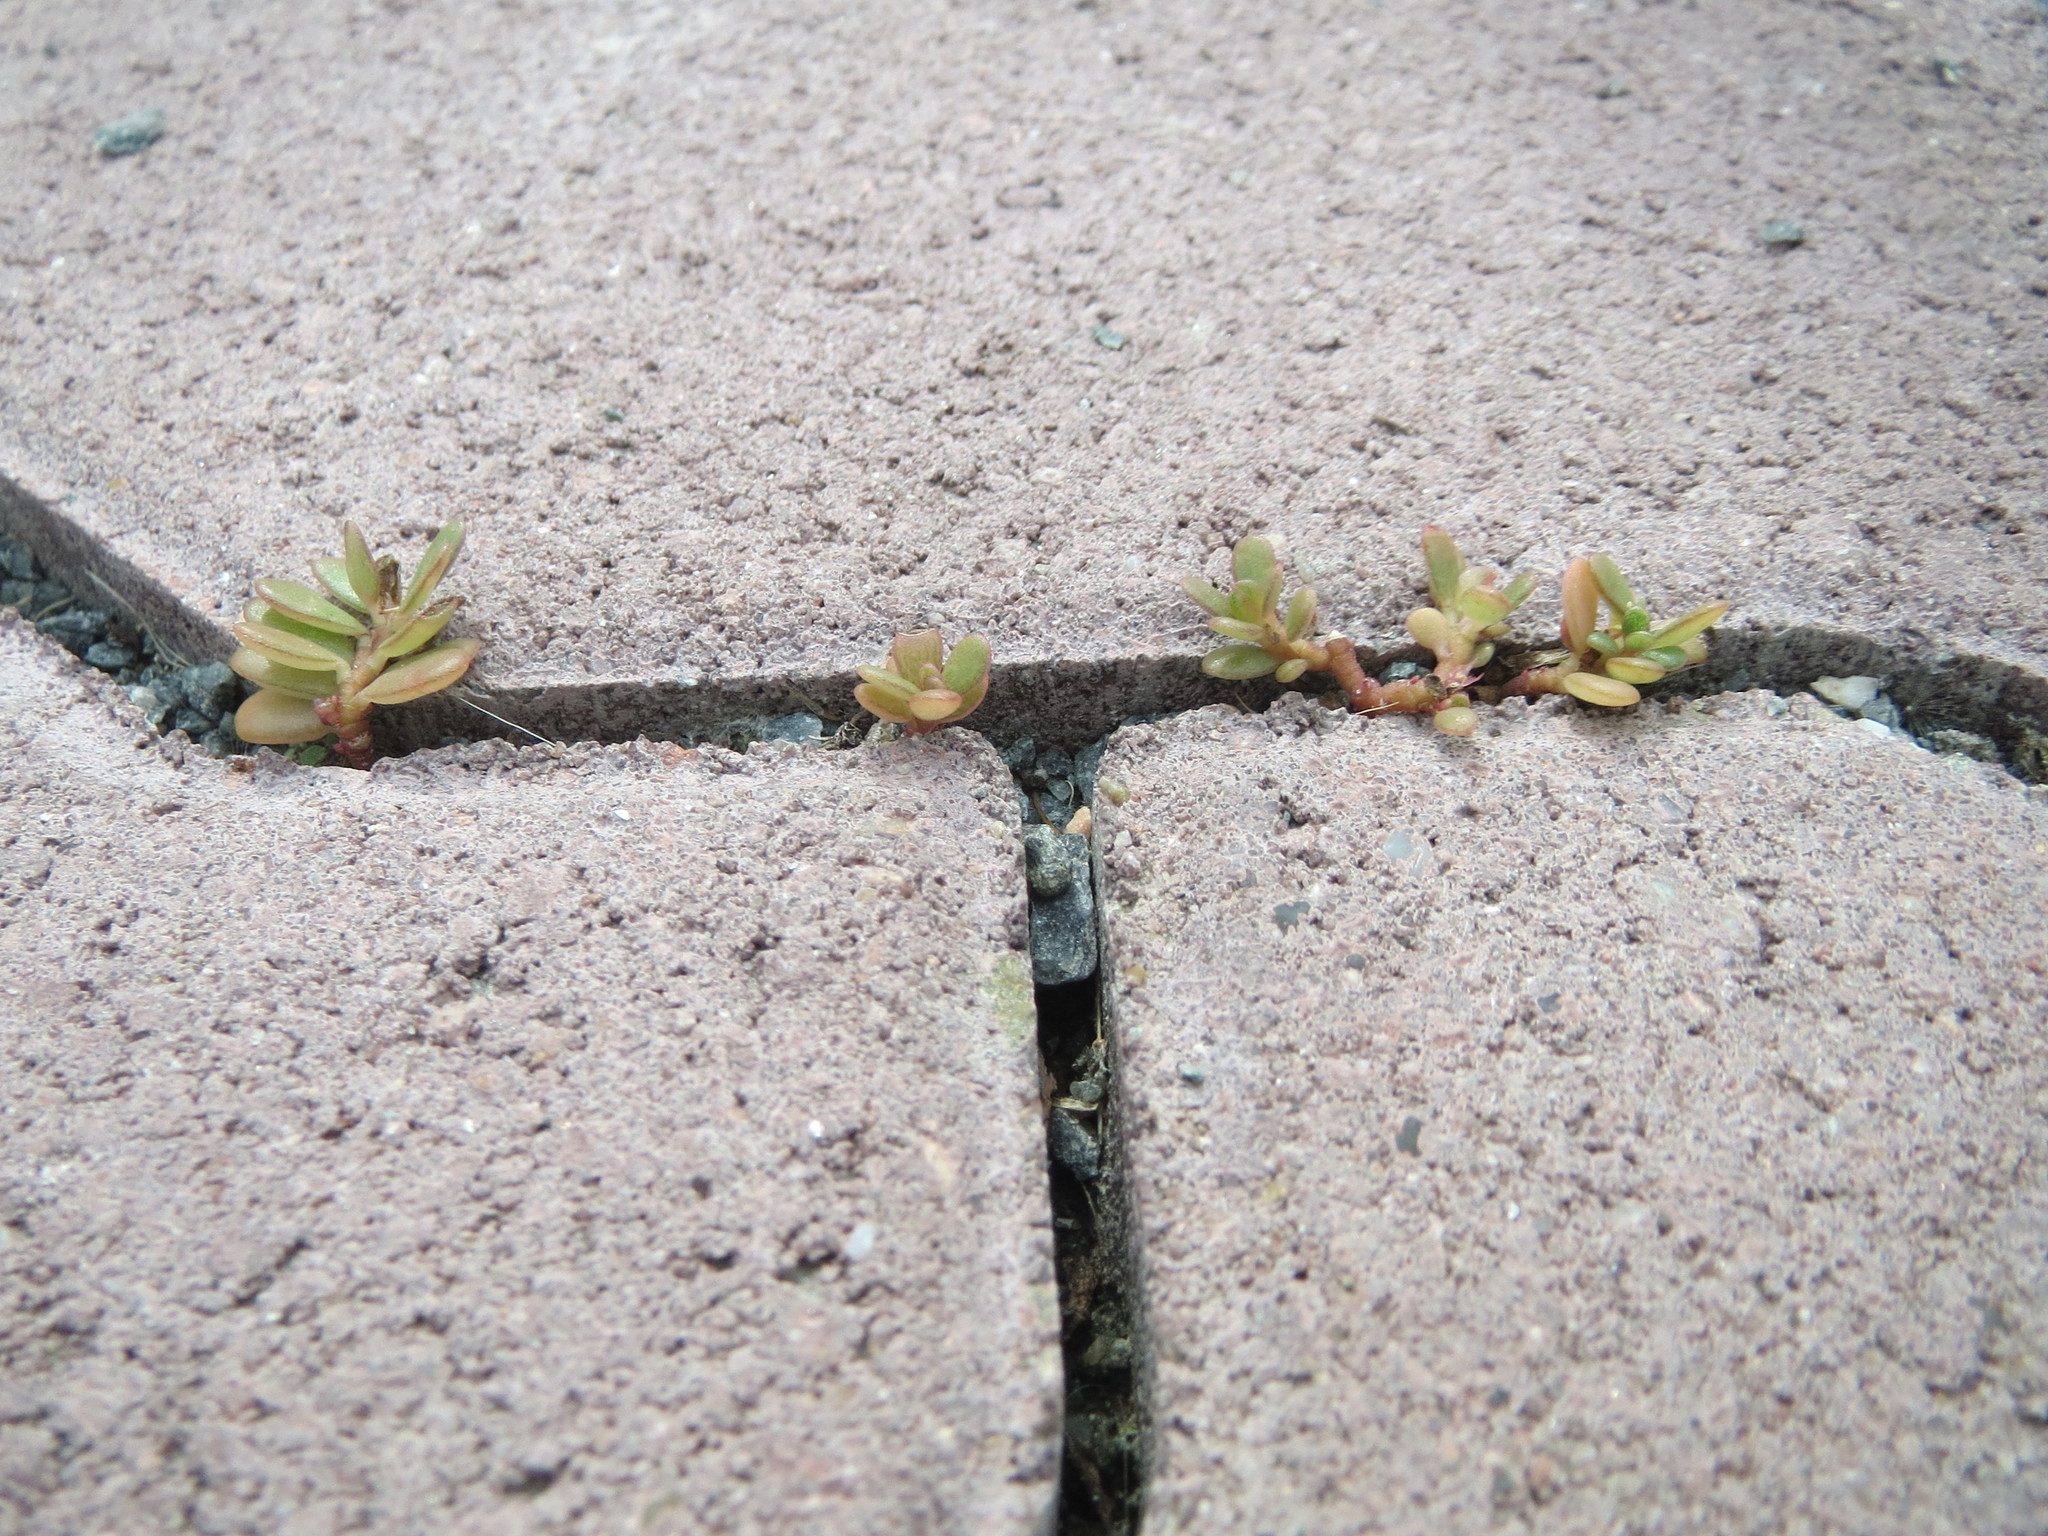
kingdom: Plantae
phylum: Tracheophyta
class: Magnoliopsida
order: Caryophyllales
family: Portulacaceae
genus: Portulaca
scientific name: Portulaca oleracea
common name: Common purslane
